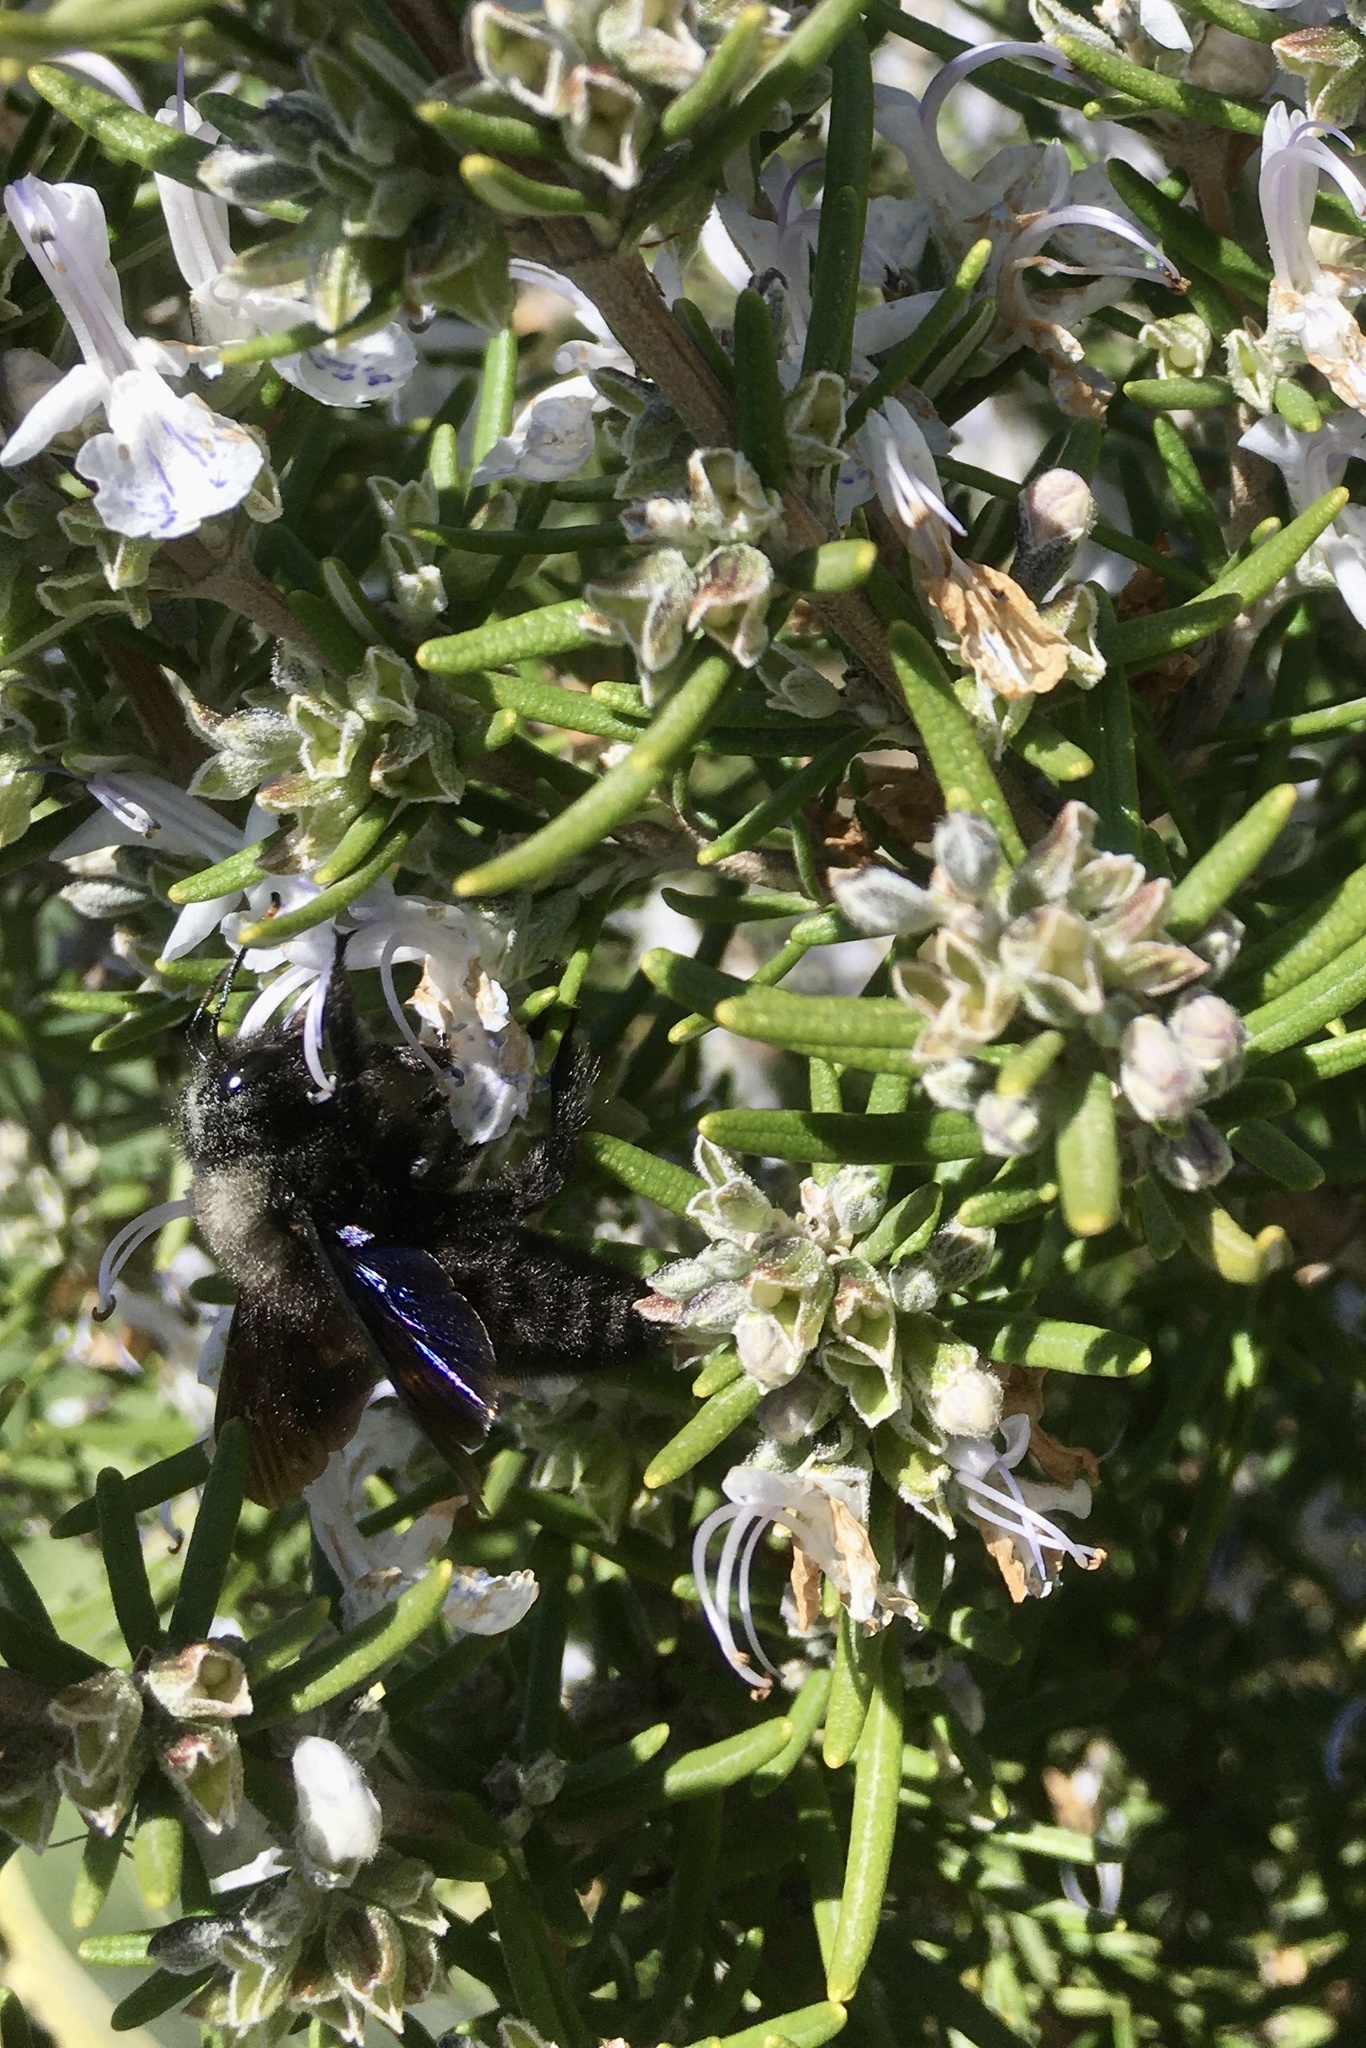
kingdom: Animalia
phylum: Arthropoda
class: Insecta
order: Hymenoptera
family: Apidae
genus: Xylocopa
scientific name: Xylocopa violacea
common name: Violet carpenter bee
